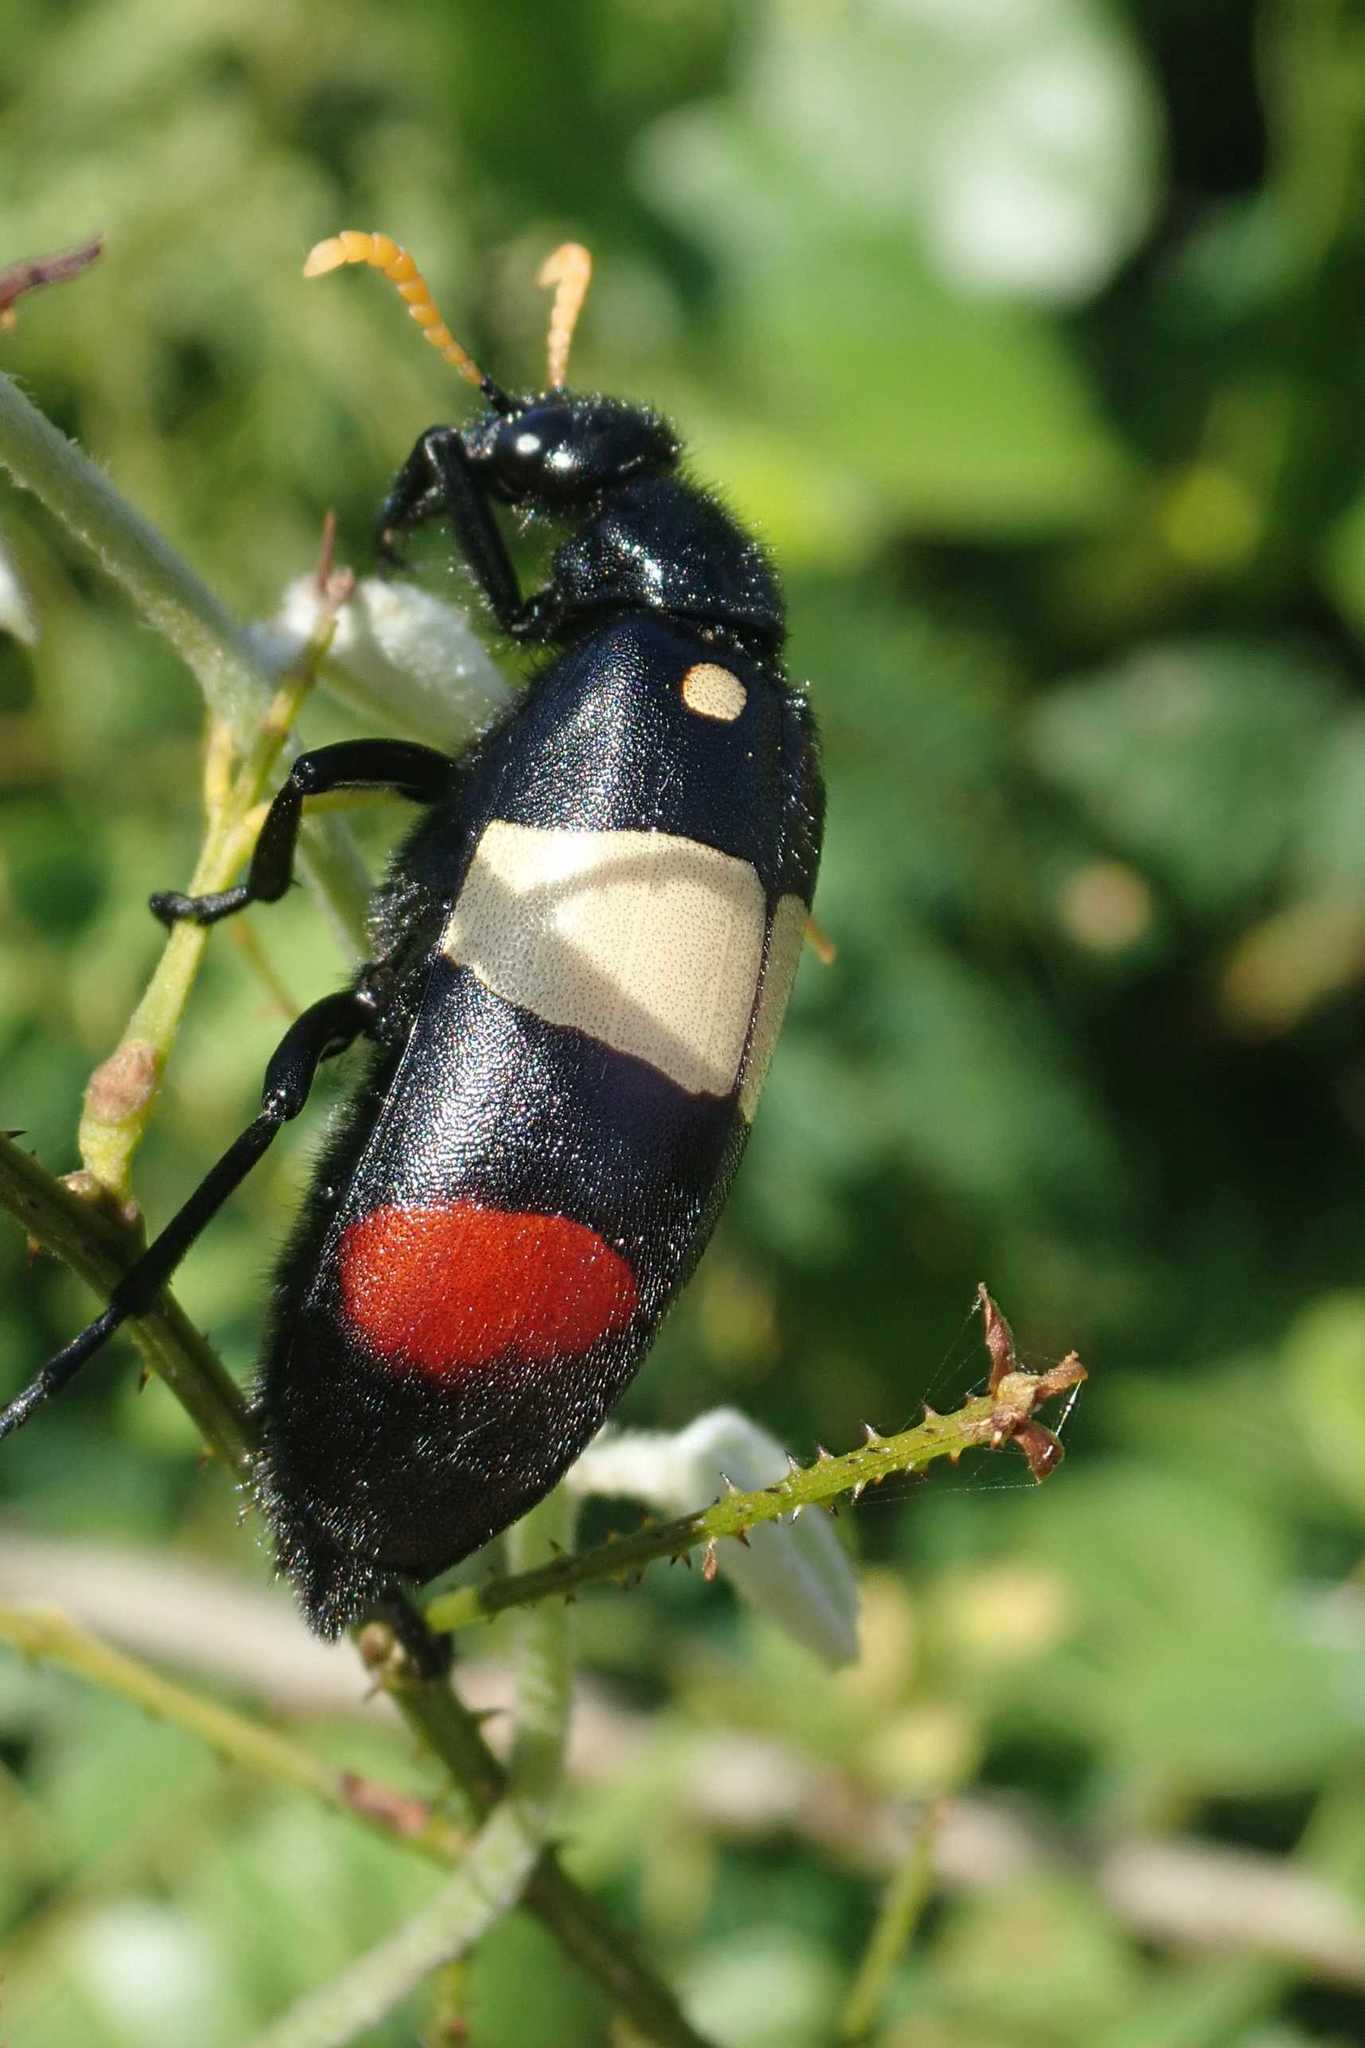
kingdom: Animalia
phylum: Arthropoda
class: Insecta
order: Coleoptera
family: Meloidae
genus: Hycleus
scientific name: Hycleus
